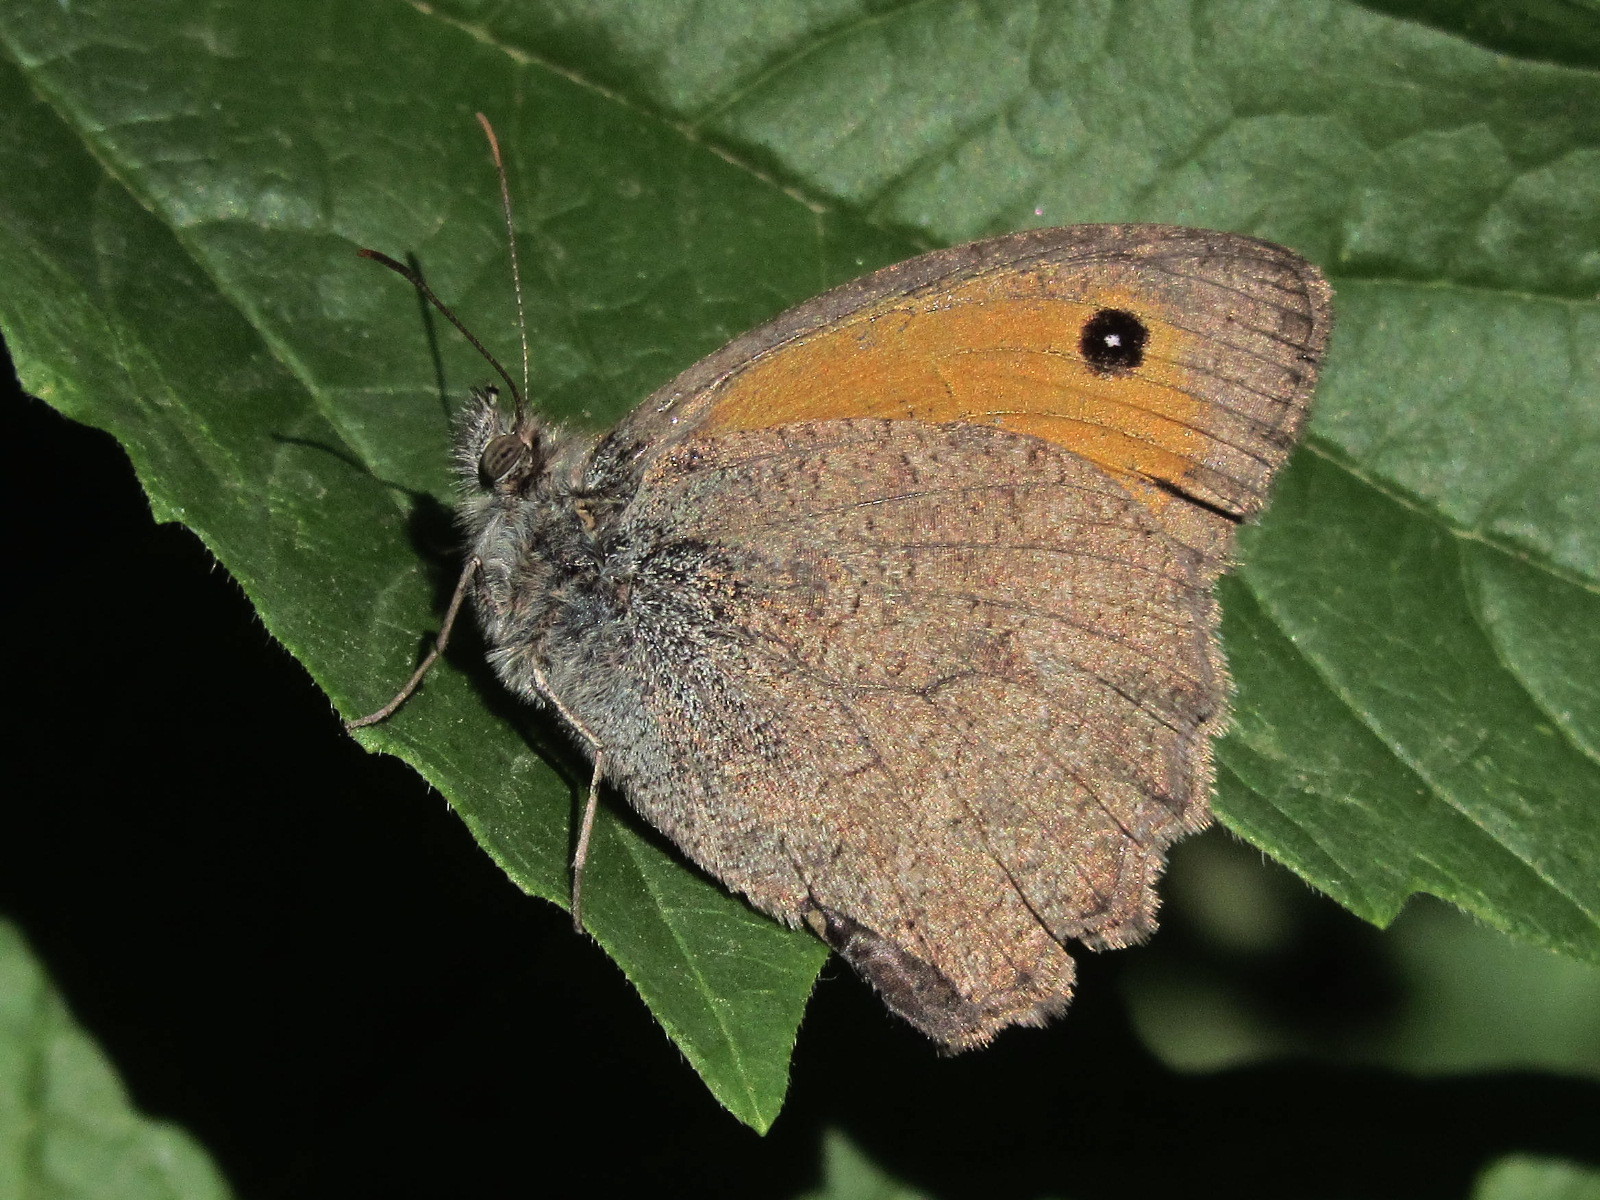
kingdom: Animalia
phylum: Arthropoda
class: Insecta
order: Lepidoptera
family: Nymphalidae
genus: Hyponephele
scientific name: Hyponephele lupinus
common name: Oriental meadow brown
